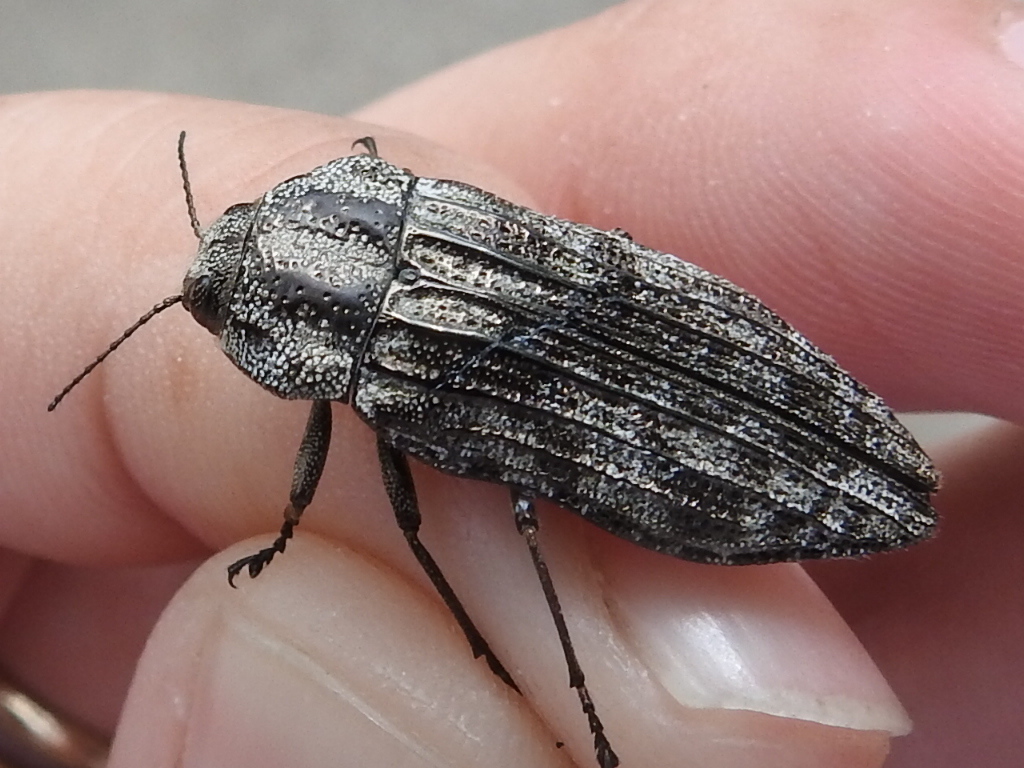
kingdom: Animalia
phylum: Arthropoda
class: Insecta
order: Coleoptera
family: Buprestidae
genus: Polycesta
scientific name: Polycesta elata
